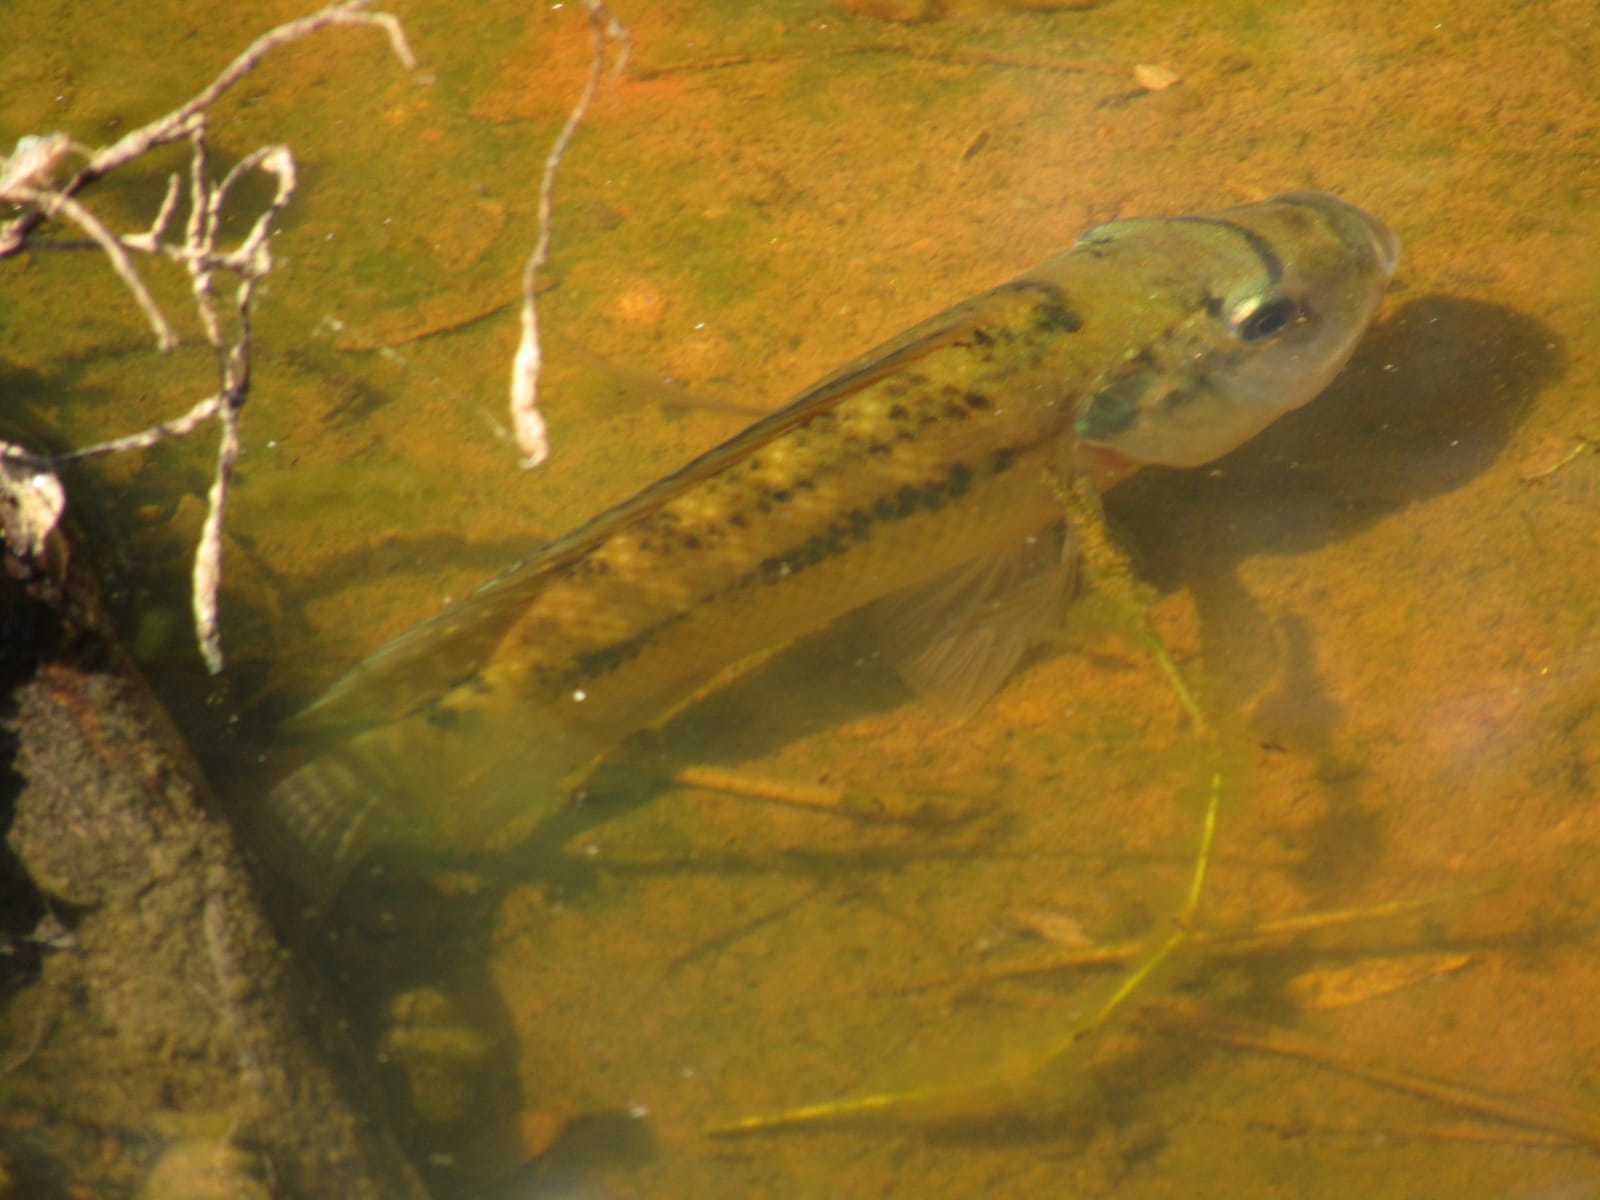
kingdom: Animalia
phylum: Chordata
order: Perciformes
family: Cichlidae
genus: Oreochromis
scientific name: Oreochromis niloticus
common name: Nile tilapia
